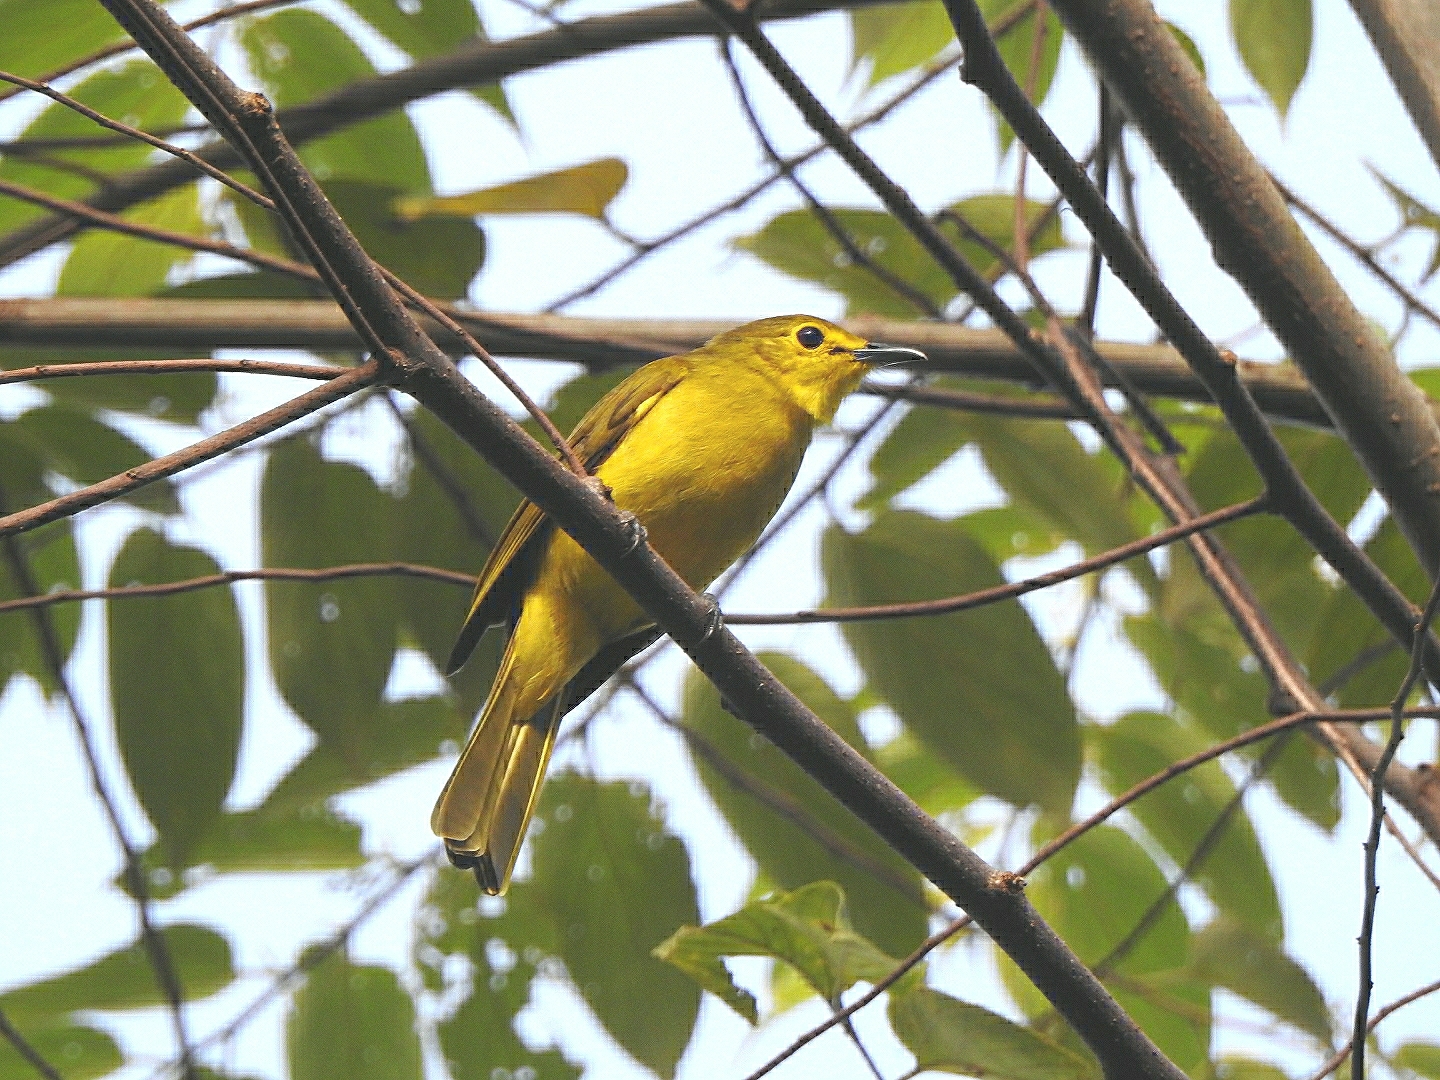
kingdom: Animalia
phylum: Chordata
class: Aves
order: Passeriformes
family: Pycnonotidae
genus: Acritillas
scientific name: Acritillas indica
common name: Yellow-browed bulbul
